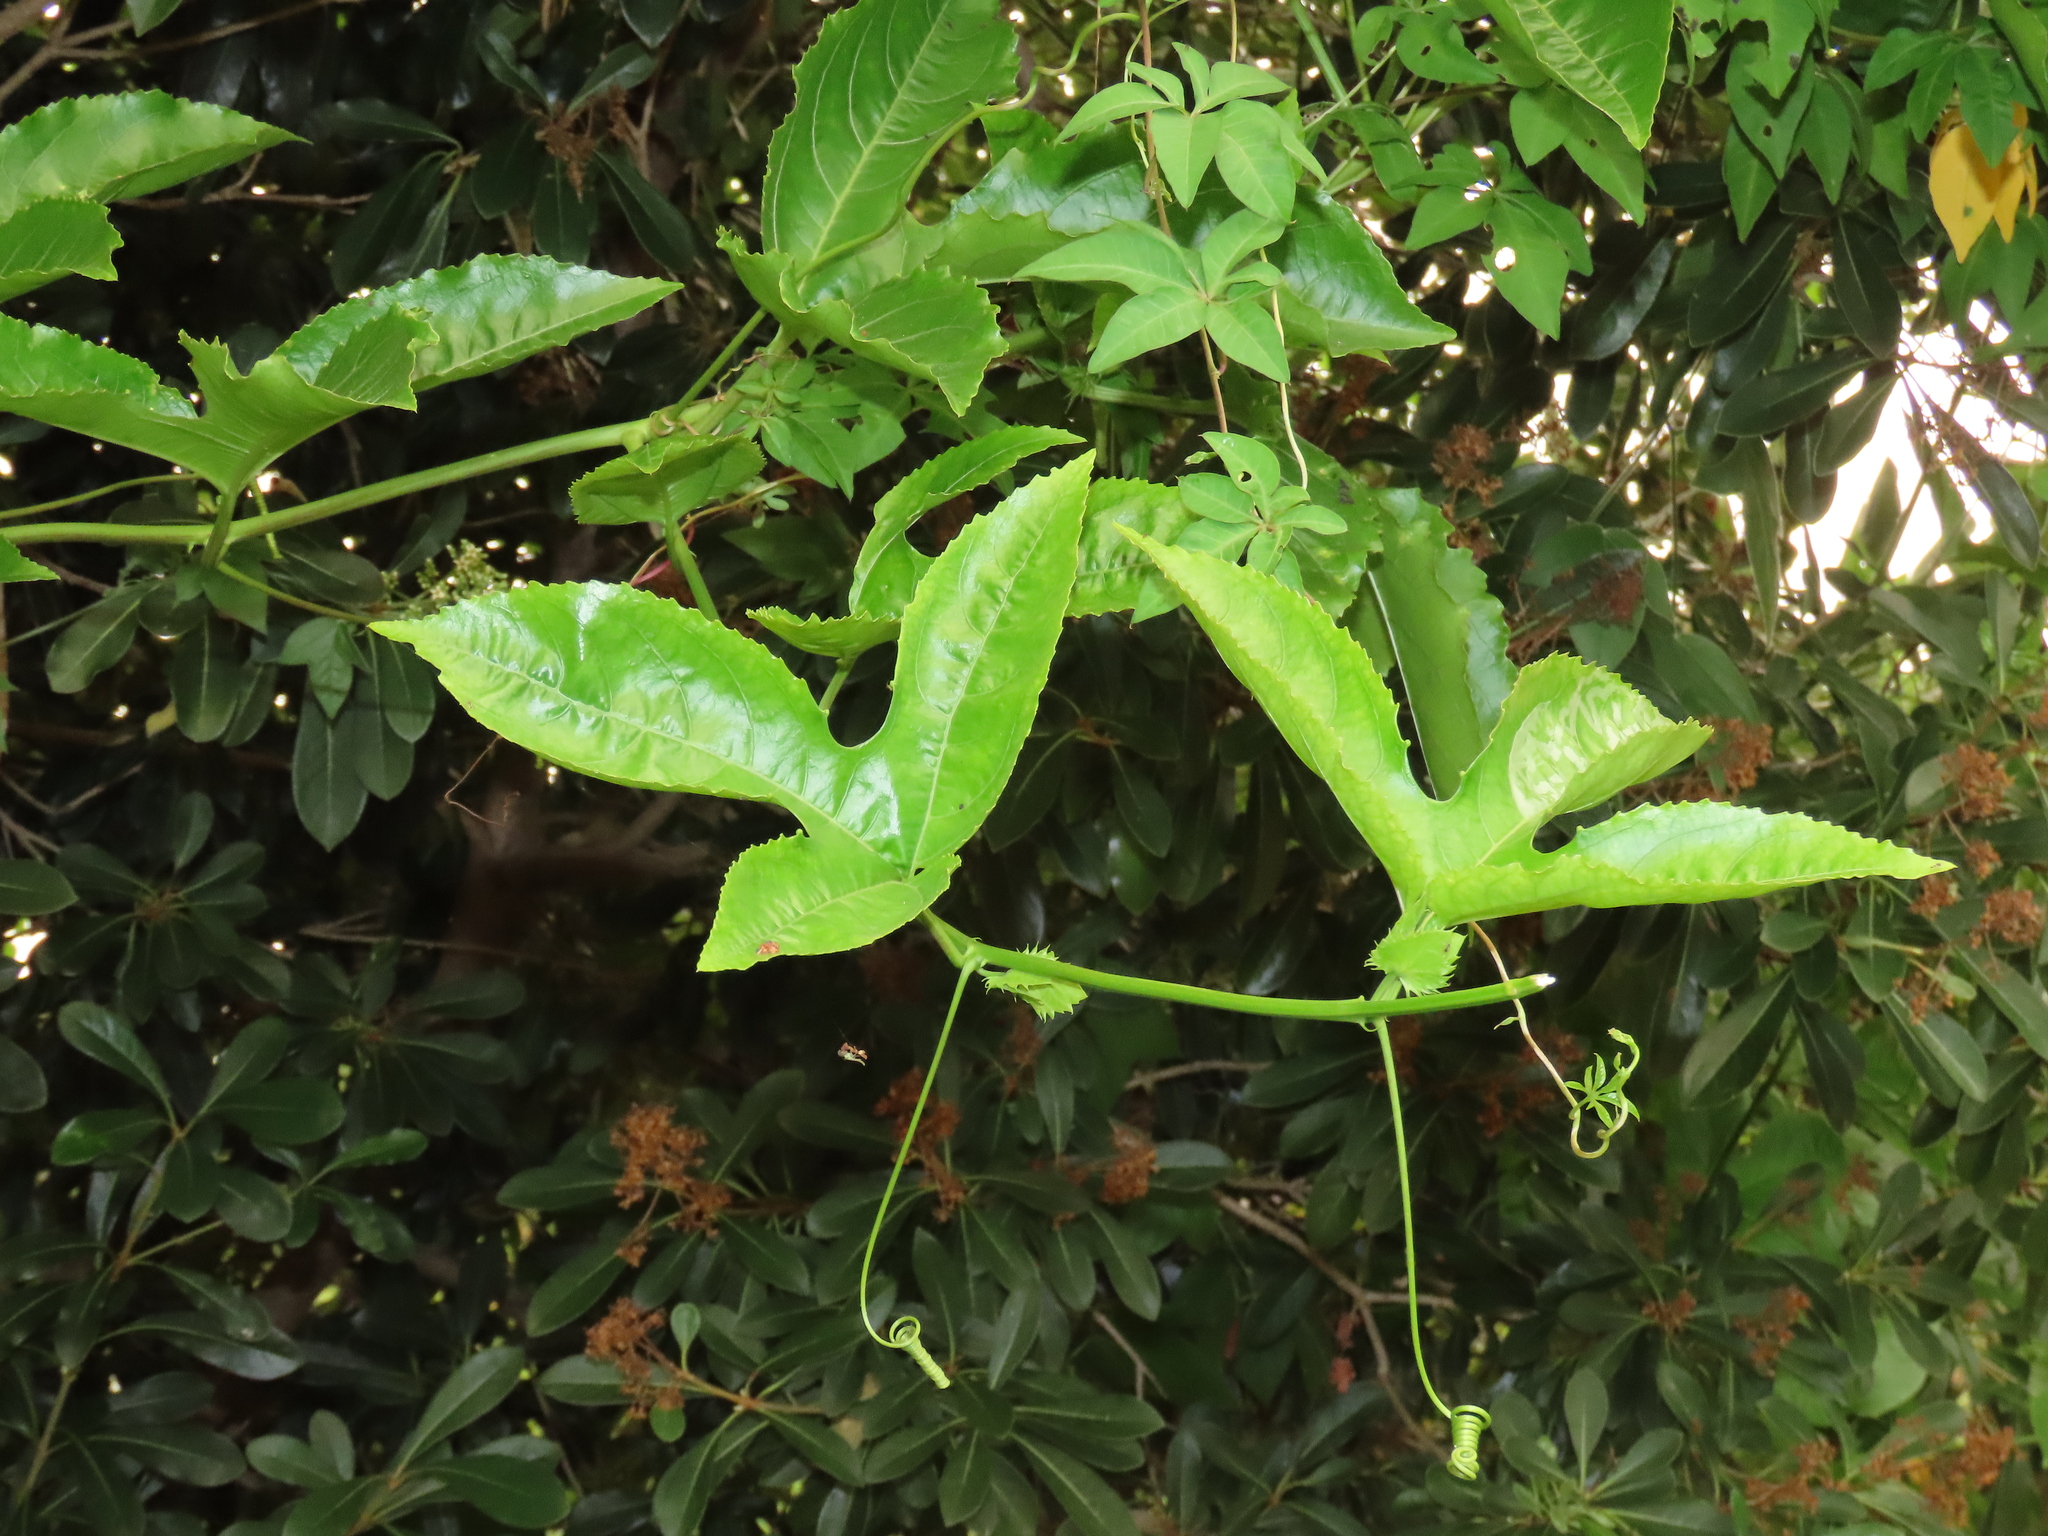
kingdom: Plantae
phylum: Tracheophyta
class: Magnoliopsida
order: Malpighiales
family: Passifloraceae
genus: Passiflora
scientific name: Passiflora edulis
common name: Purple granadilla
